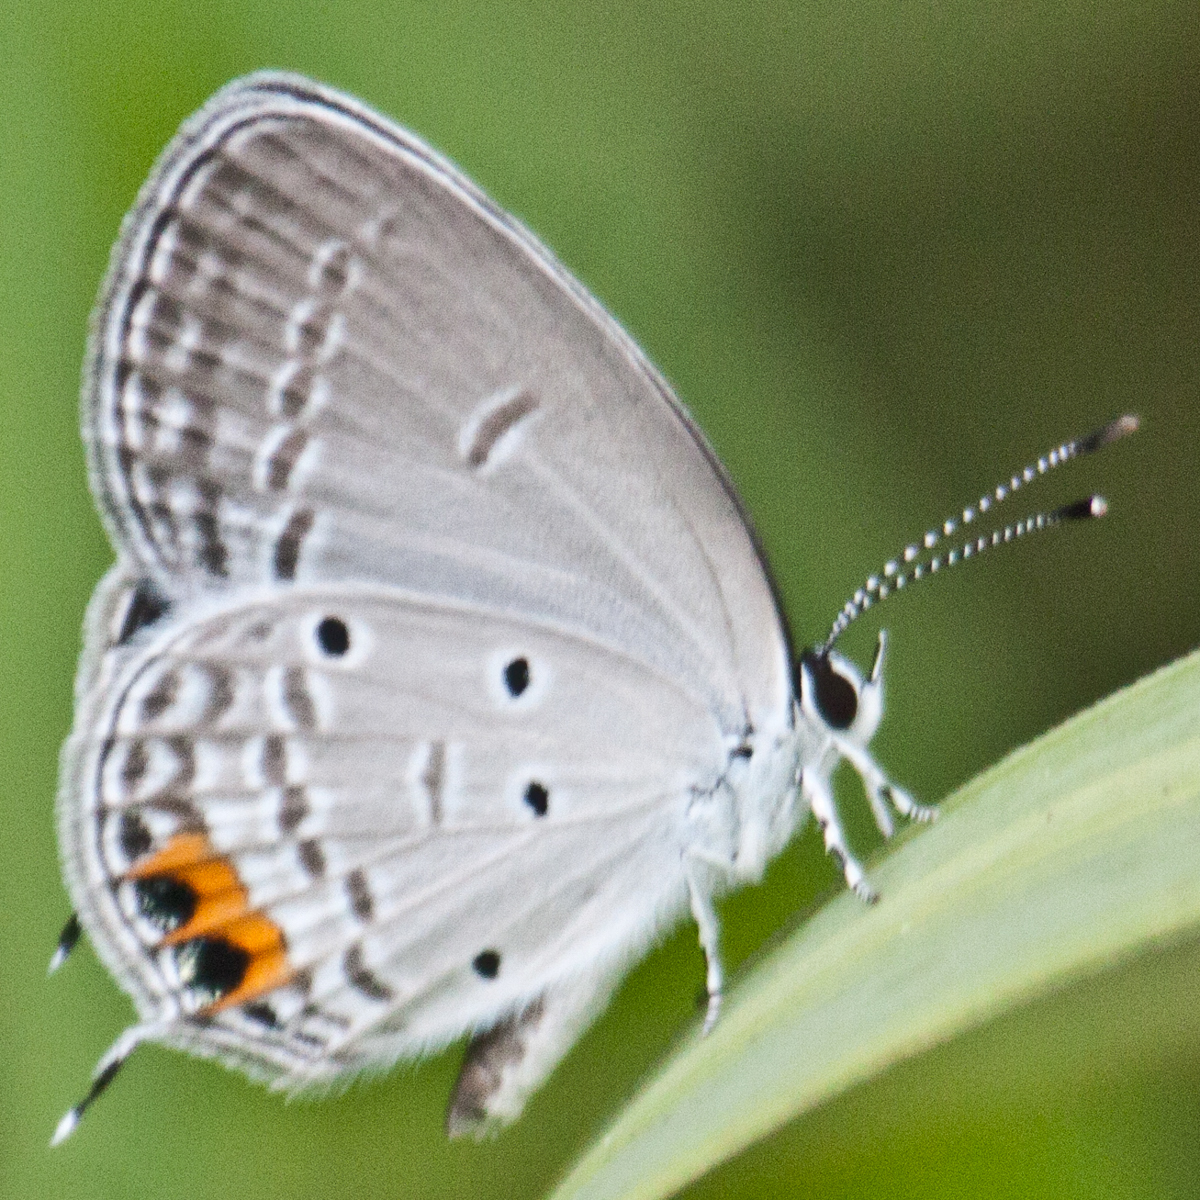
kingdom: Animalia
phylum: Arthropoda
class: Insecta
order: Lepidoptera
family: Lycaenidae
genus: Everes
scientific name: Everes lacturnus
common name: Orange-tipped pea-blue
